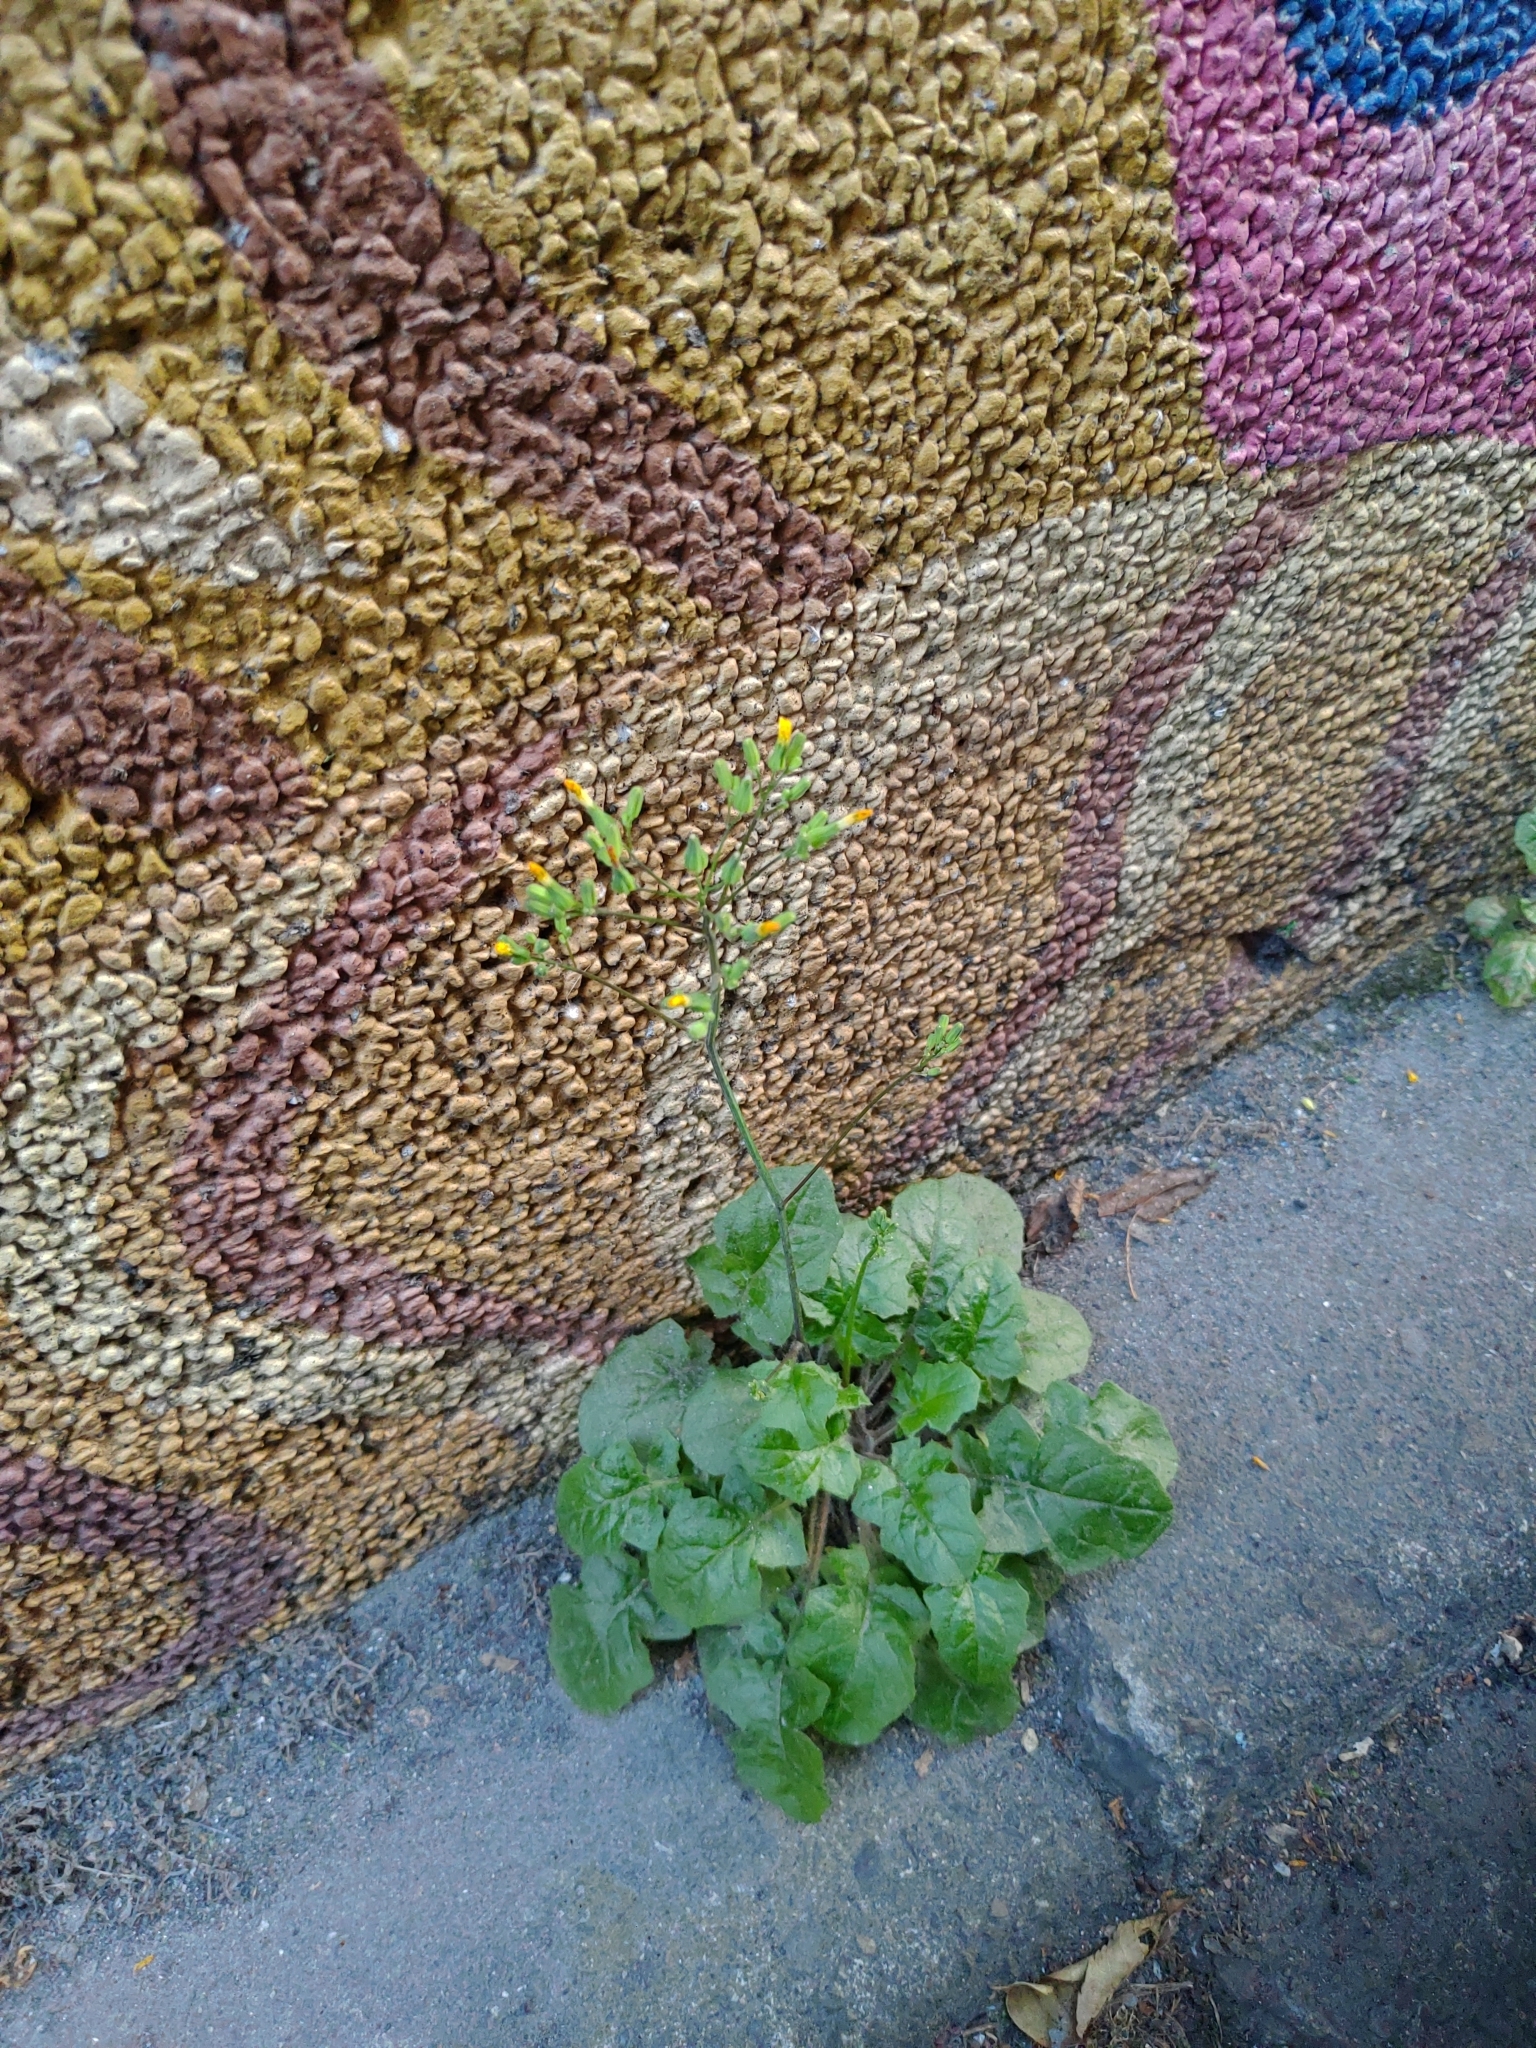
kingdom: Plantae
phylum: Tracheophyta
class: Magnoliopsida
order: Asterales
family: Asteraceae
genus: Youngia
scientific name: Youngia japonica
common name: Oriental false hawksbeard
